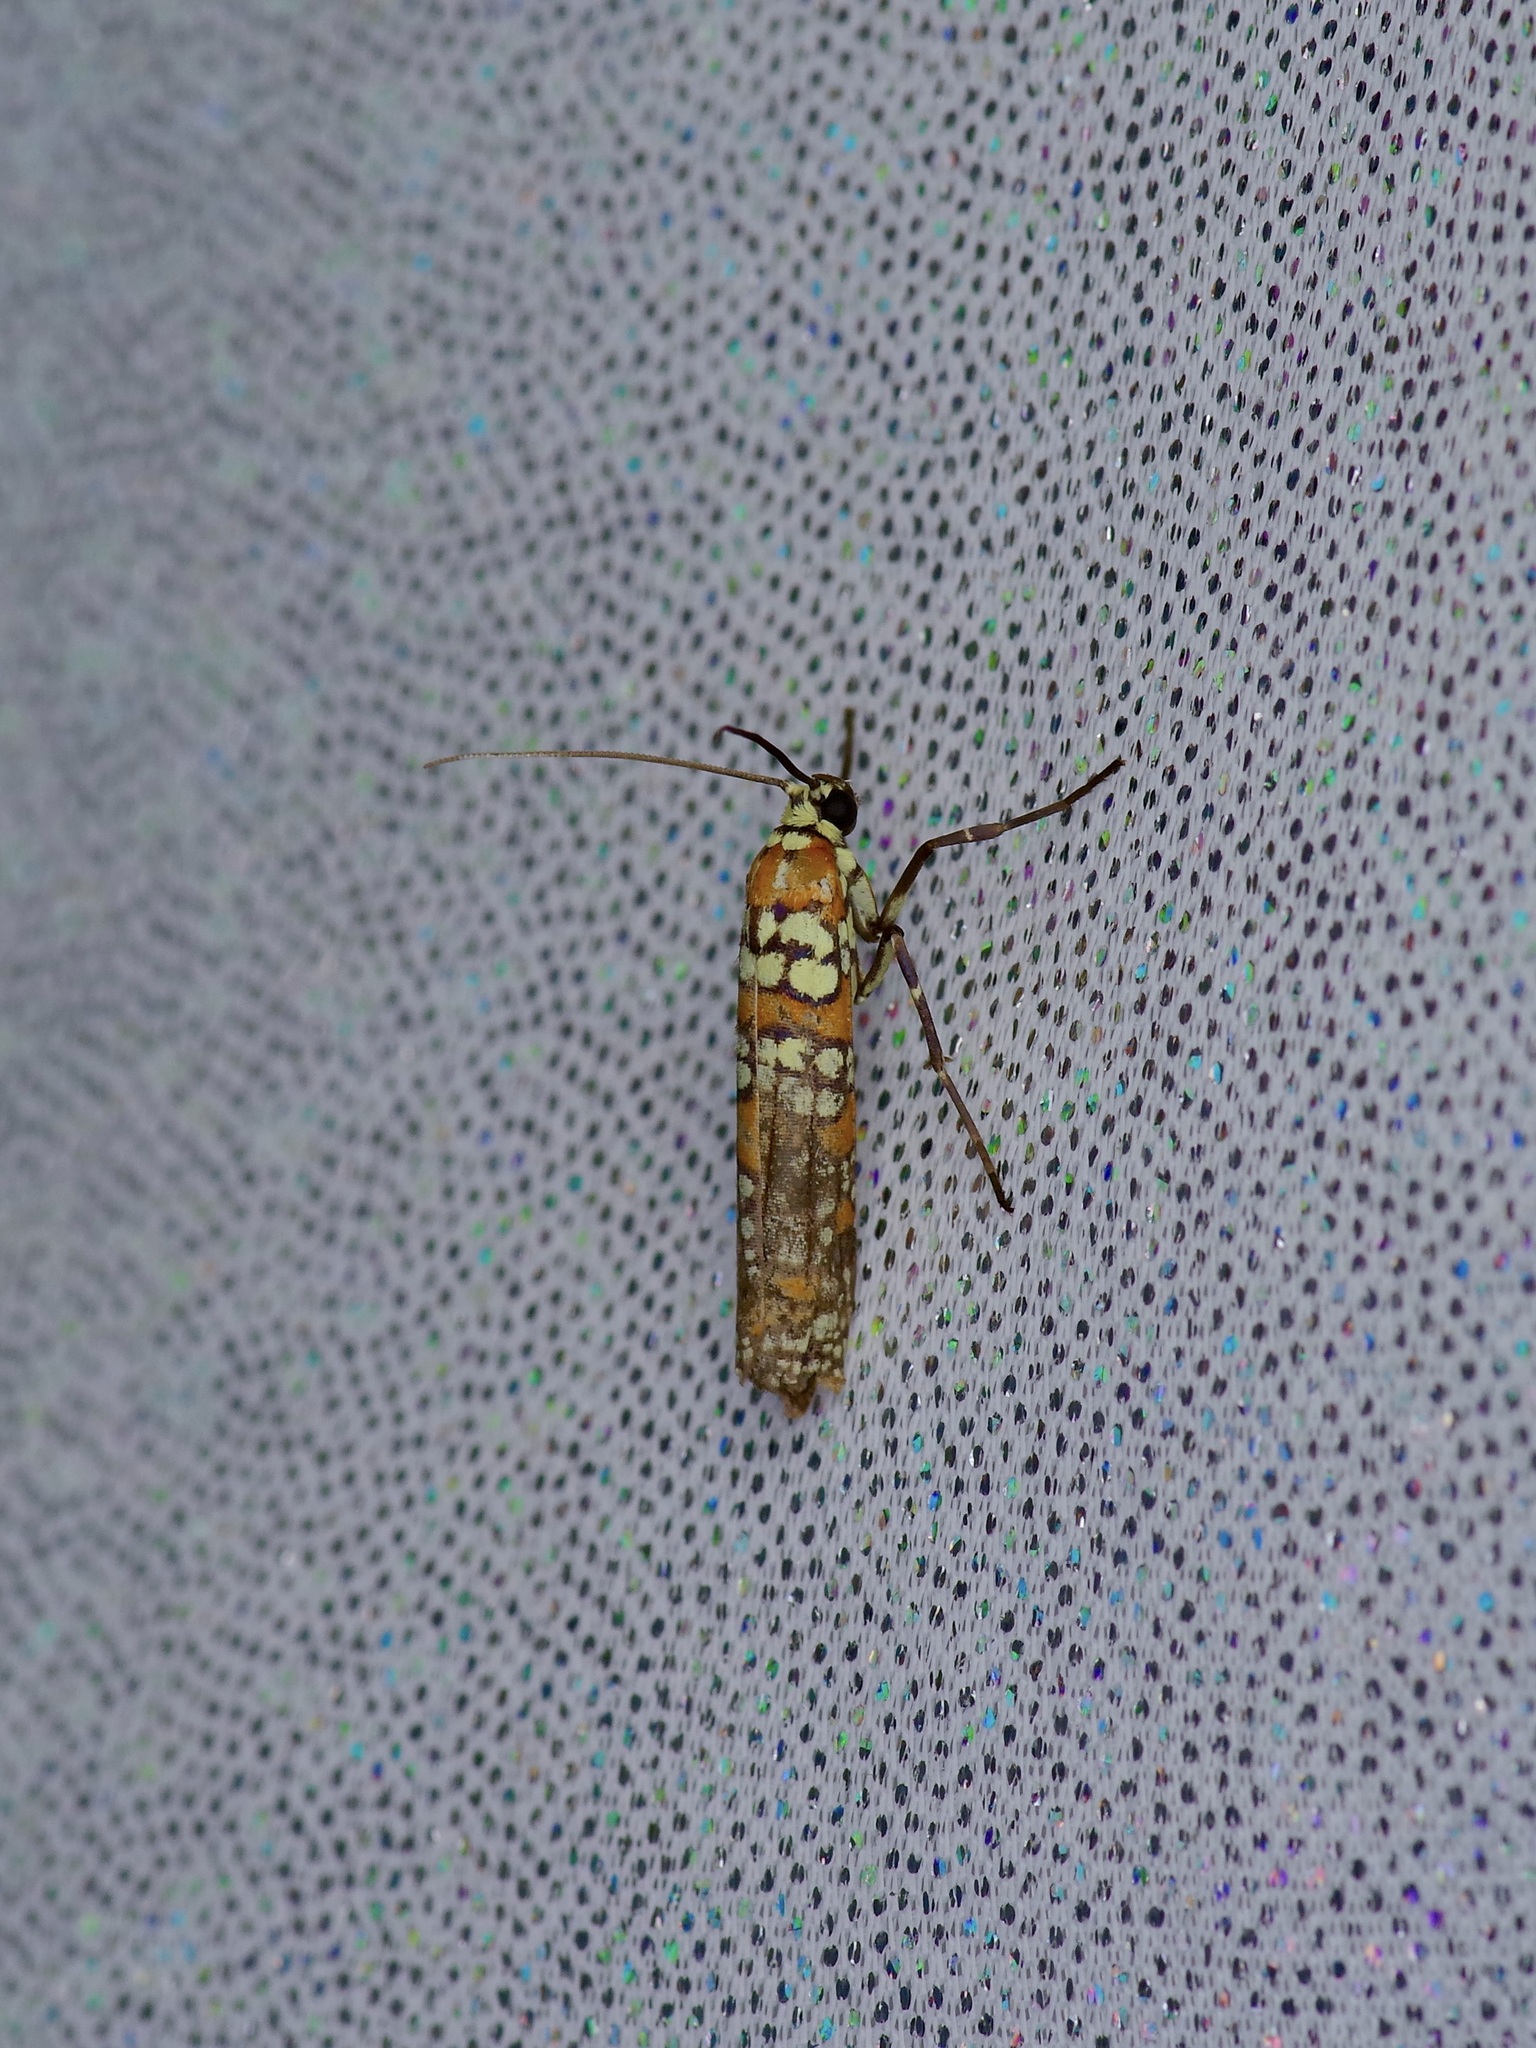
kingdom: Animalia
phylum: Arthropoda
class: Insecta
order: Lepidoptera
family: Attevidae
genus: Atteva
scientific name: Atteva punctella
